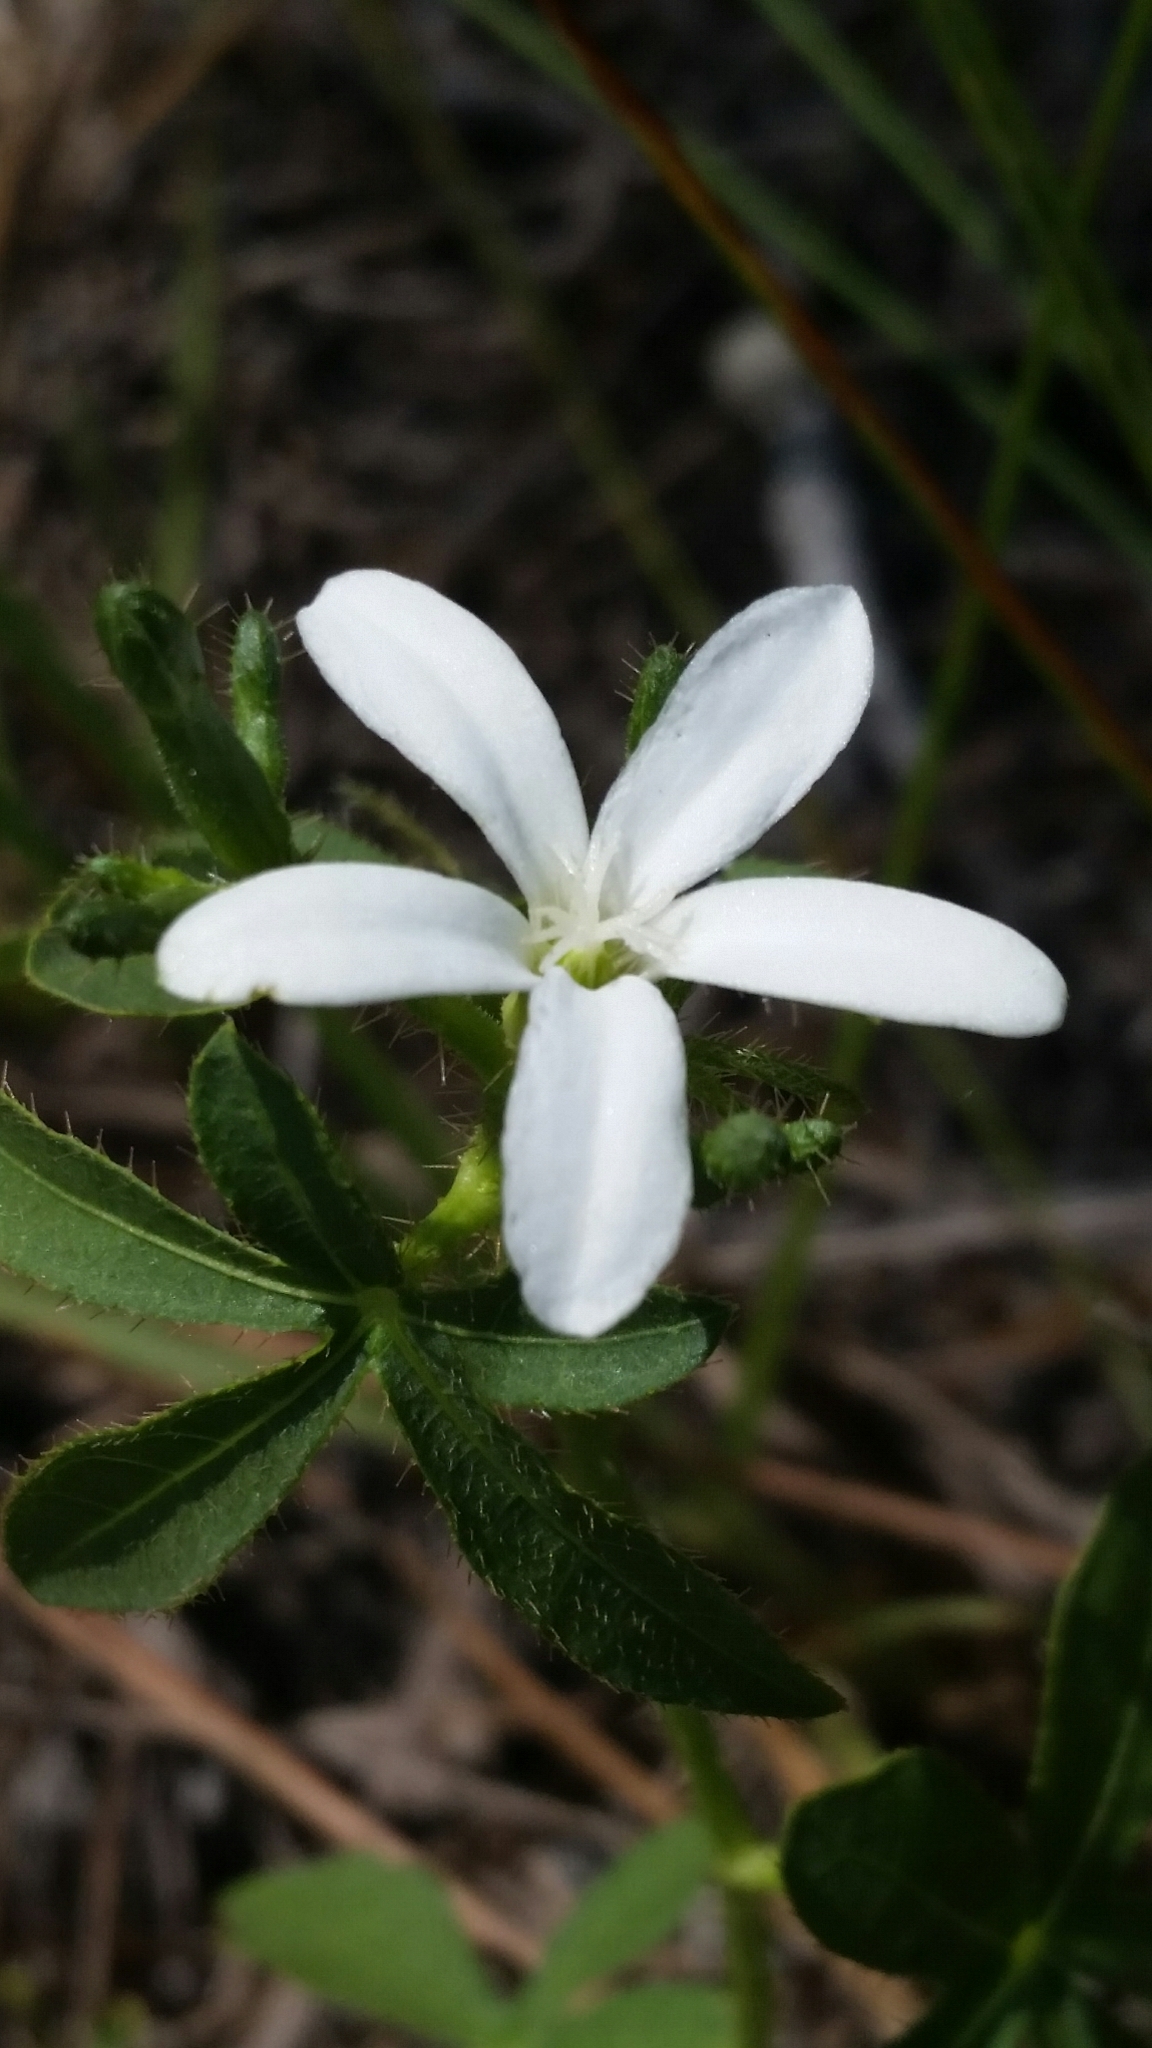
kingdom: Plantae
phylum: Tracheophyta
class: Magnoliopsida
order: Malpighiales
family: Euphorbiaceae
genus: Cnidoscolus
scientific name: Cnidoscolus stimulosus
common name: Bull-nettle
